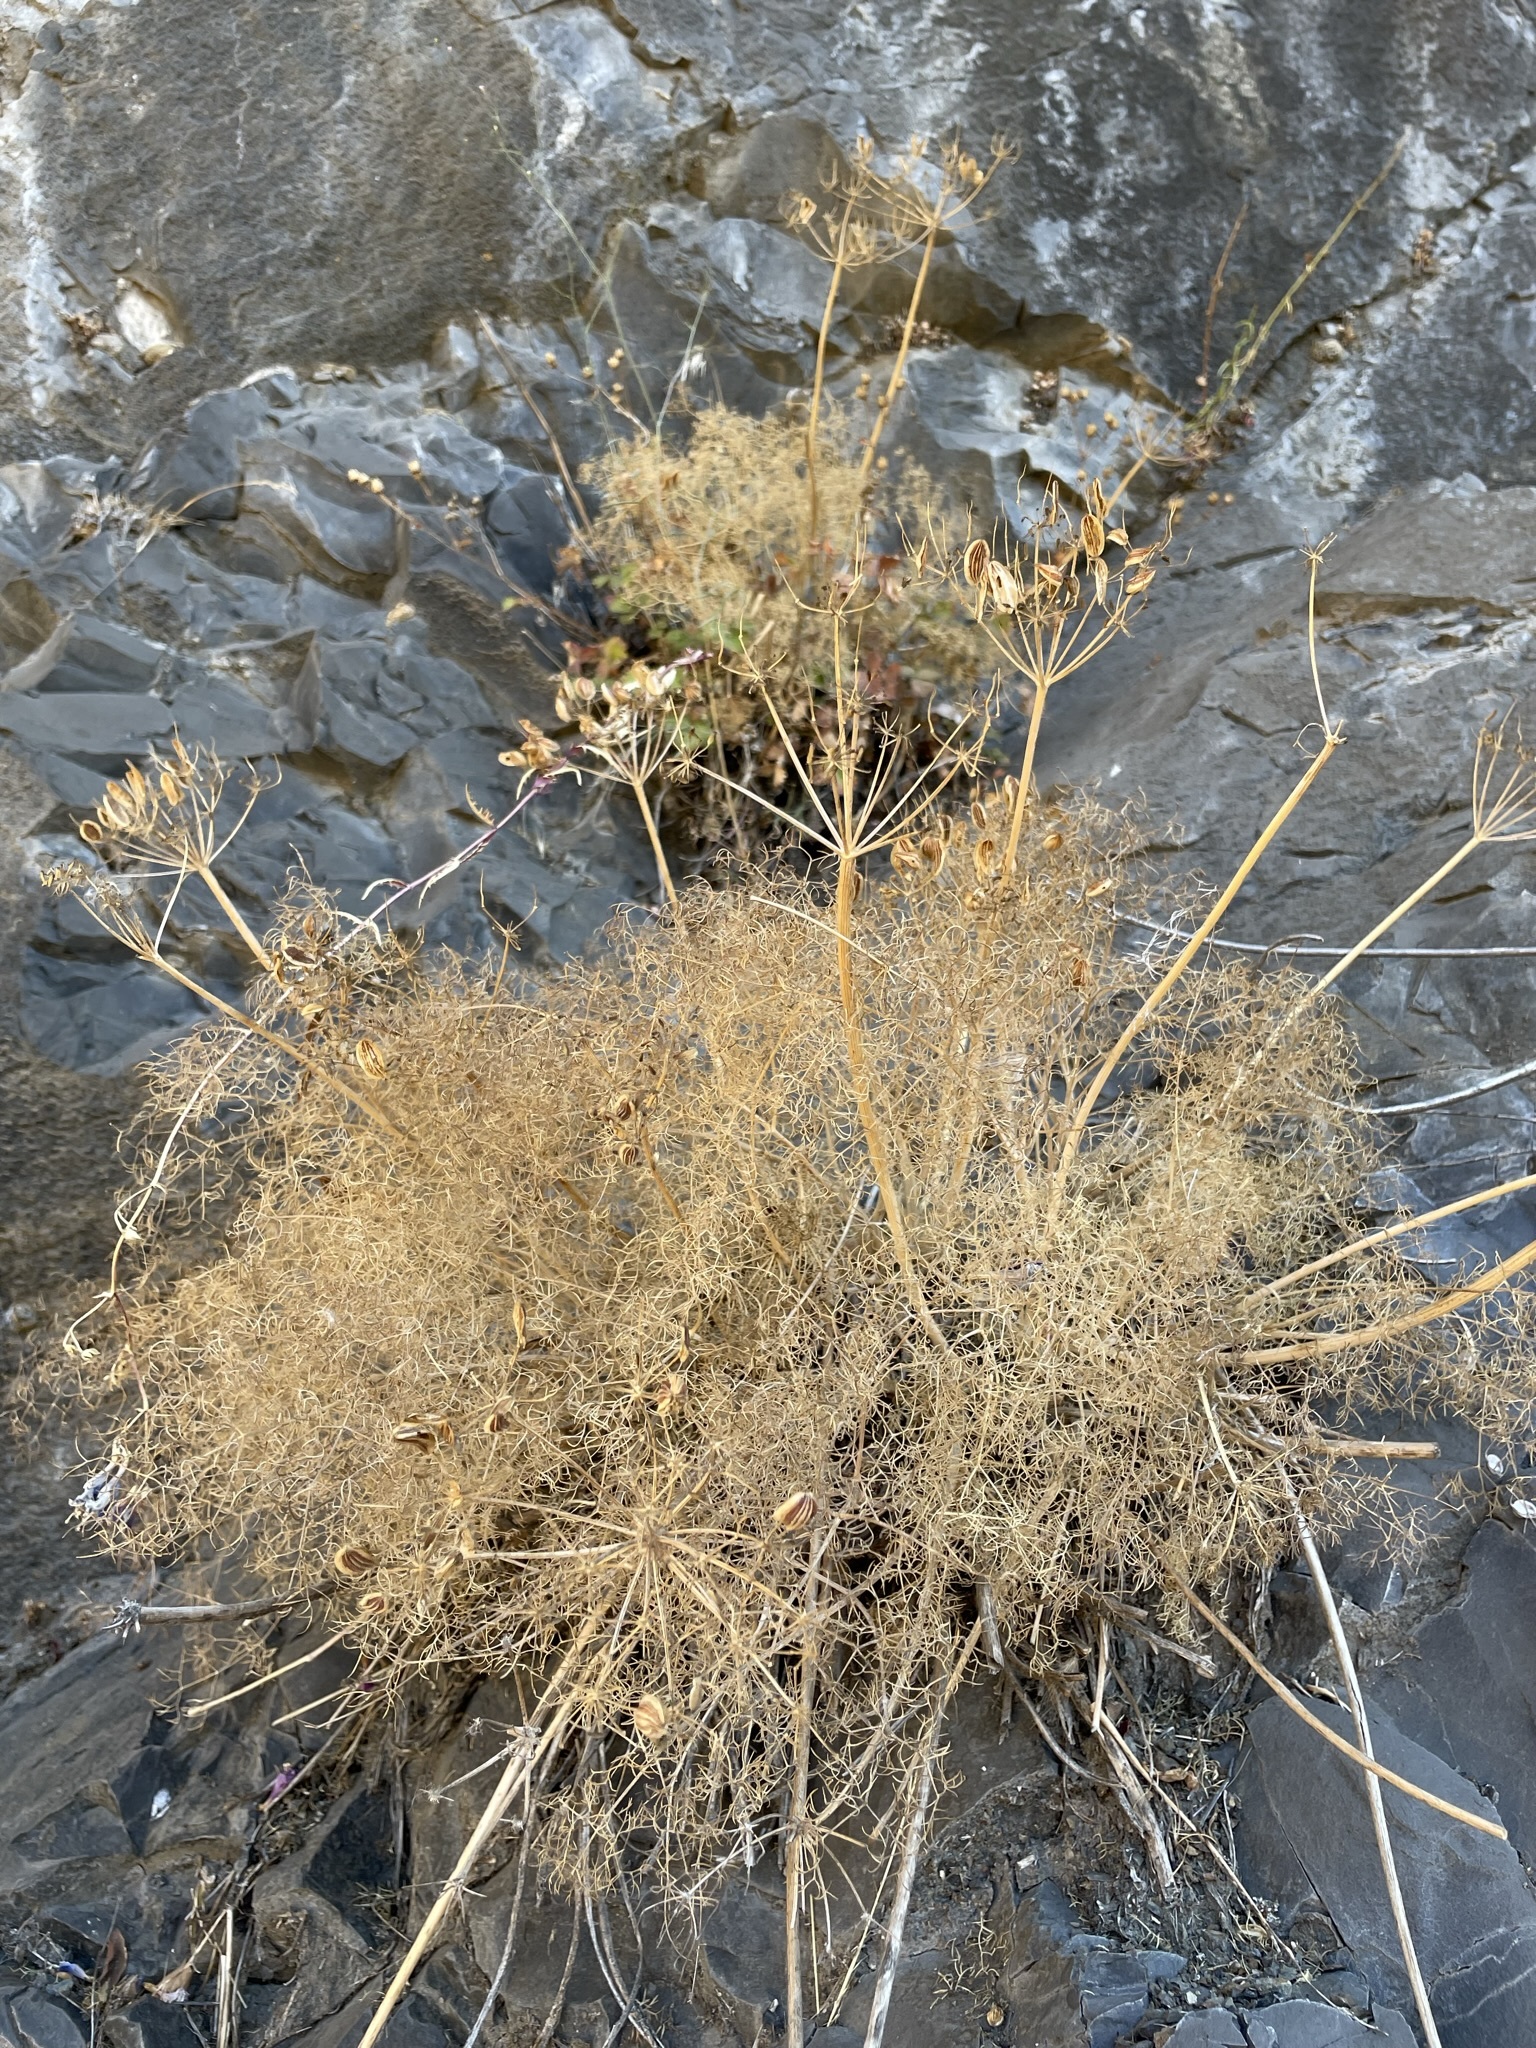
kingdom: Plantae
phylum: Tracheophyta
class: Magnoliopsida
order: Apiales
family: Apiaceae
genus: Lomatium
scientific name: Lomatium klickitatense
